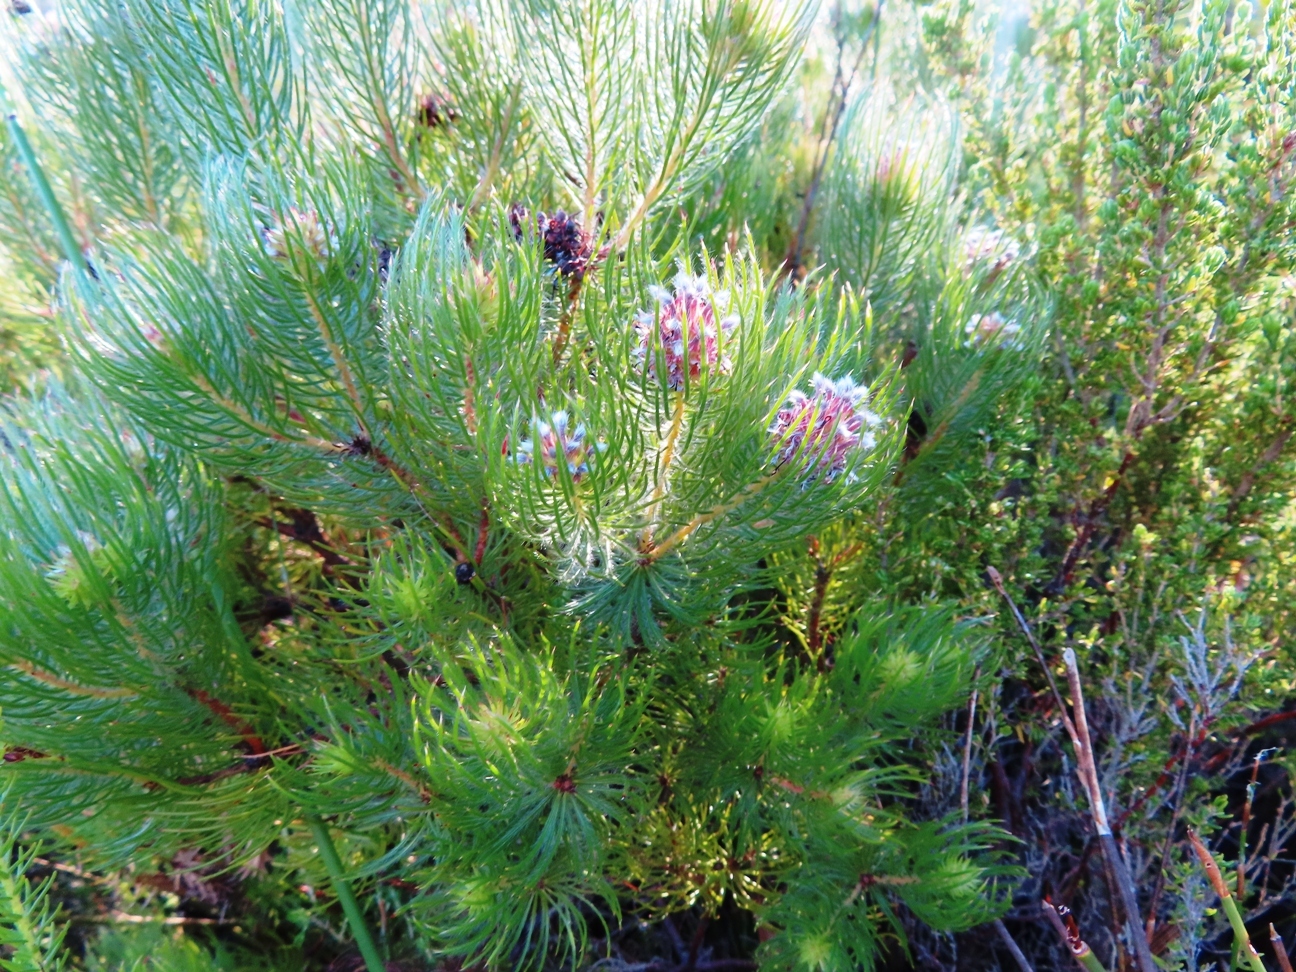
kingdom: Plantae
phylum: Tracheophyta
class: Magnoliopsida
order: Proteales
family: Proteaceae
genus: Spatalla
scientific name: Spatalla setacea
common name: Needle-leaf spoon
